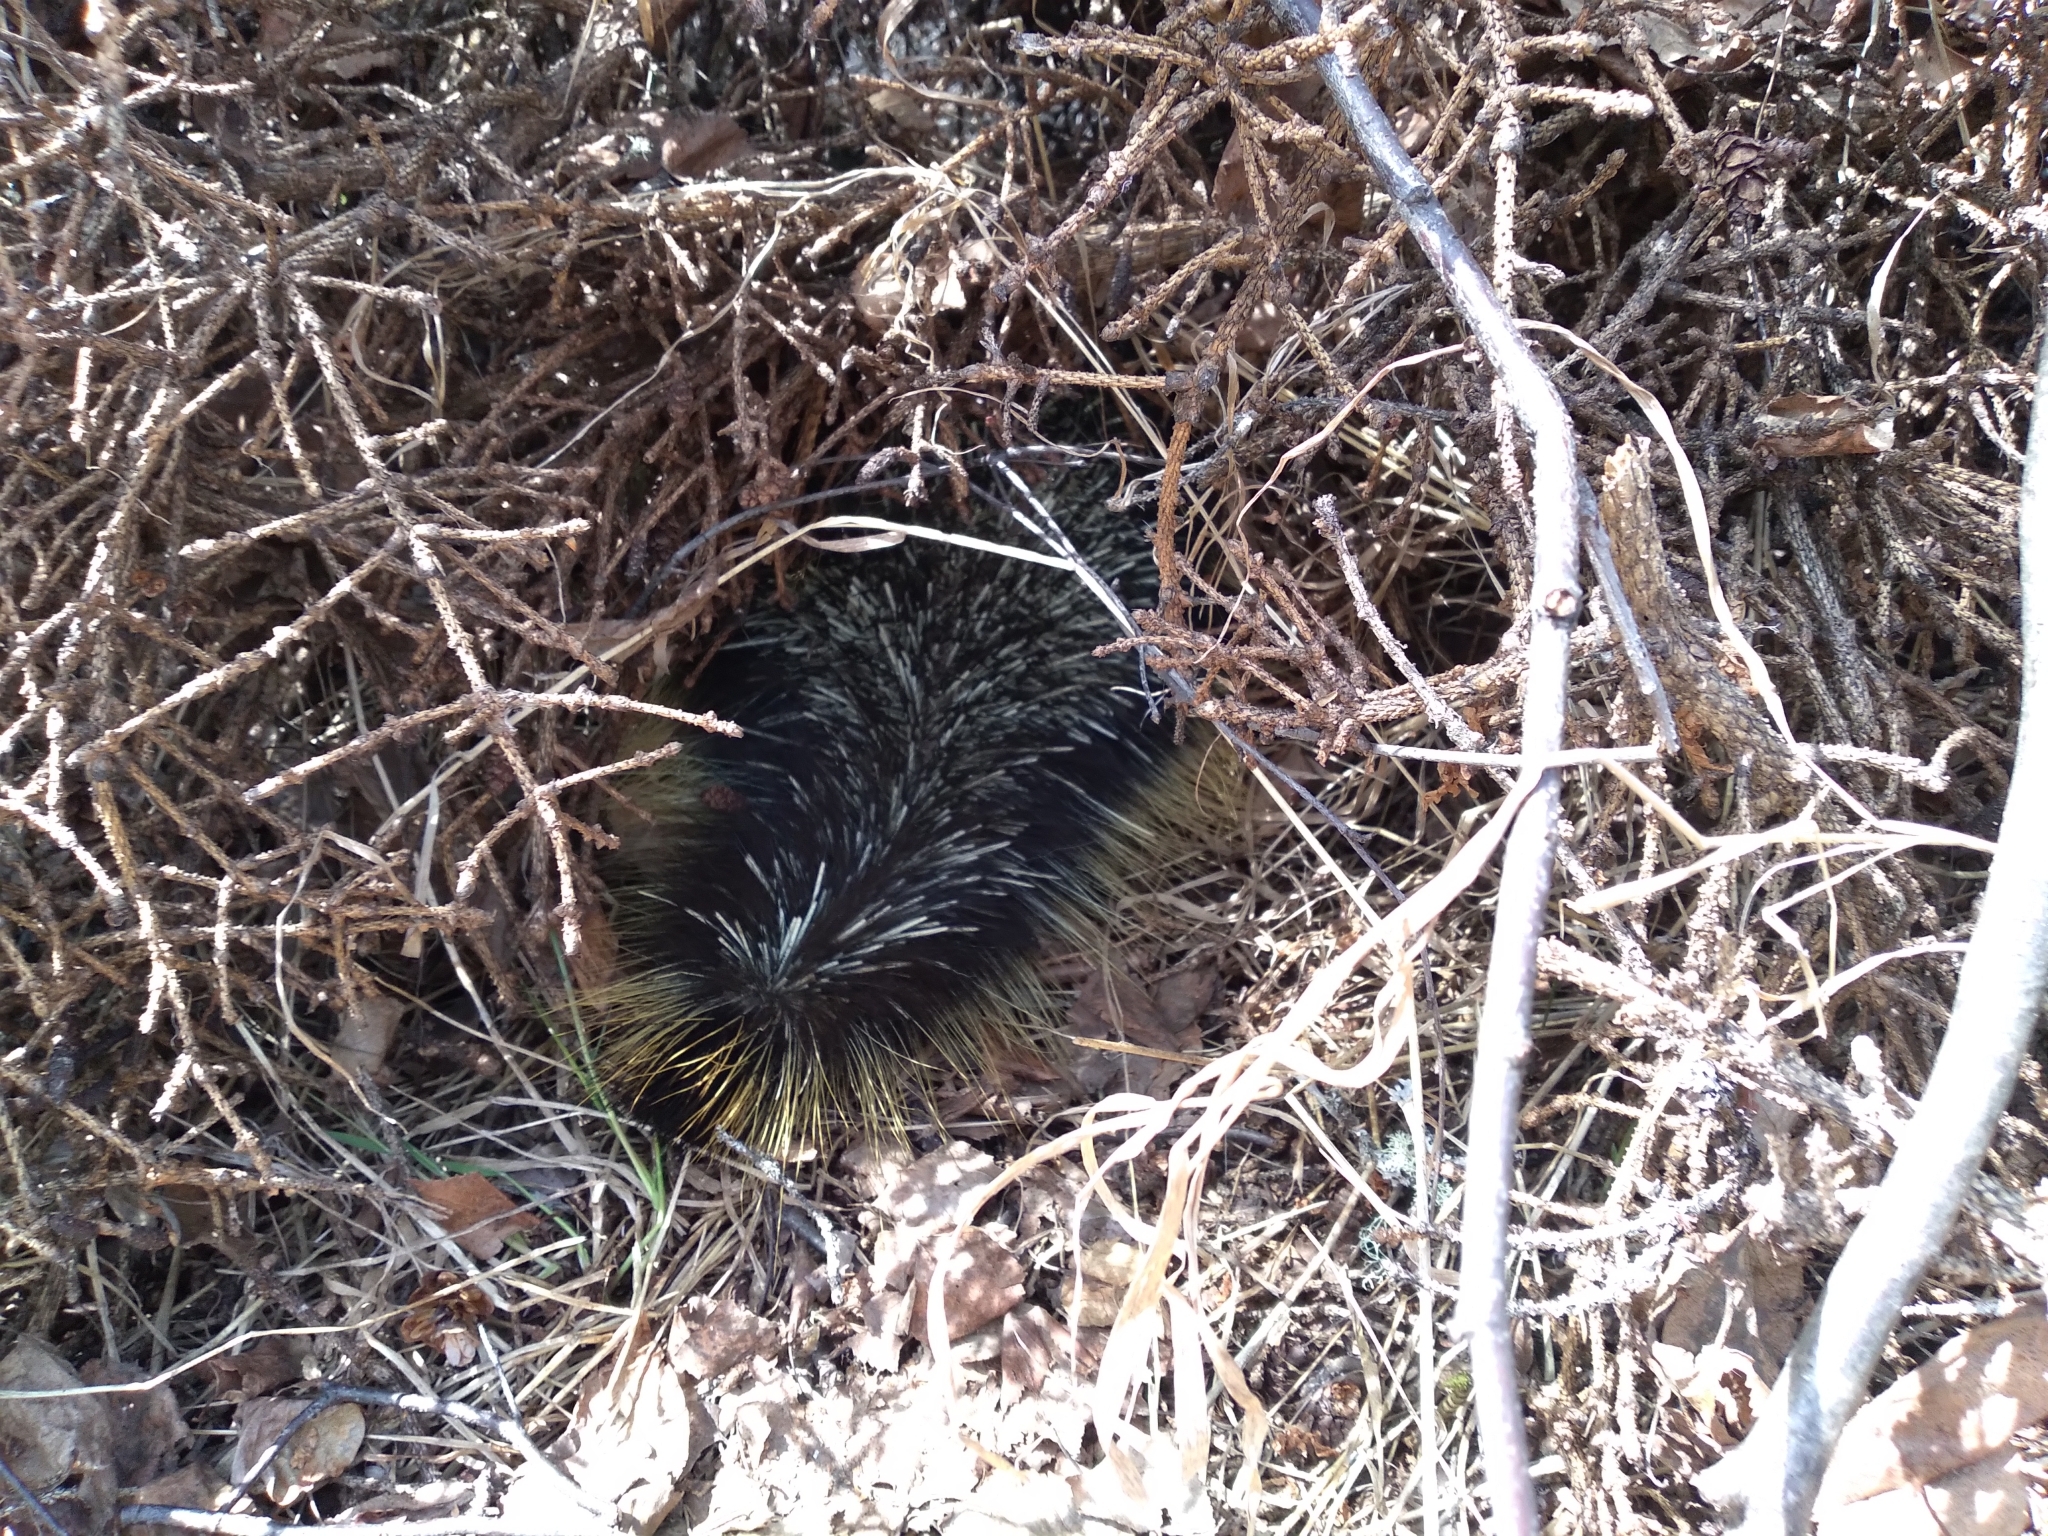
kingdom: Animalia
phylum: Chordata
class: Mammalia
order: Rodentia
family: Erethizontidae
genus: Erethizon
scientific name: Erethizon dorsatus
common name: North american porcupine
